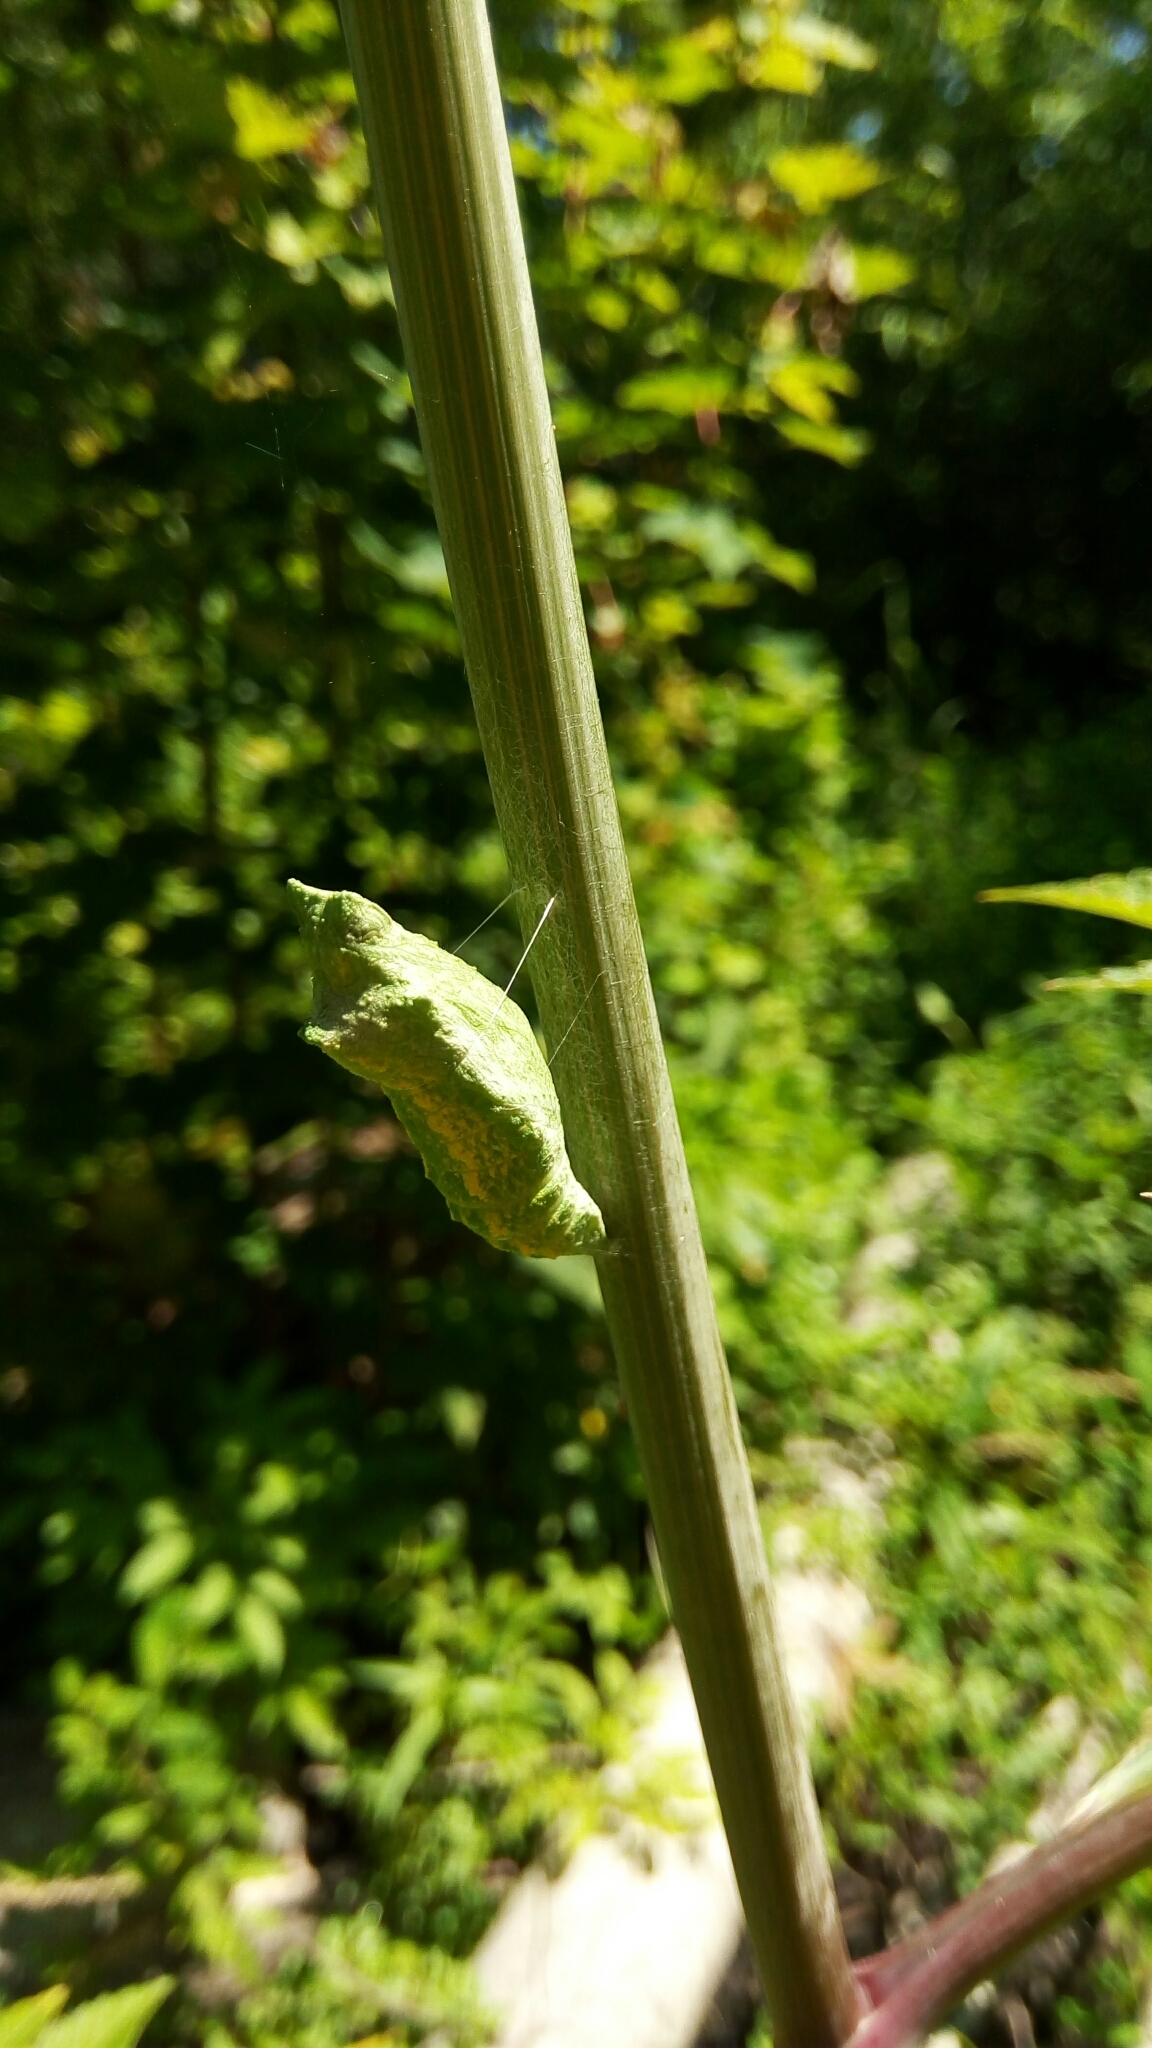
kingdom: Animalia
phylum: Arthropoda
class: Insecta
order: Lepidoptera
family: Papilionidae
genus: Papilio
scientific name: Papilio polyxenes
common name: Black swallowtail
